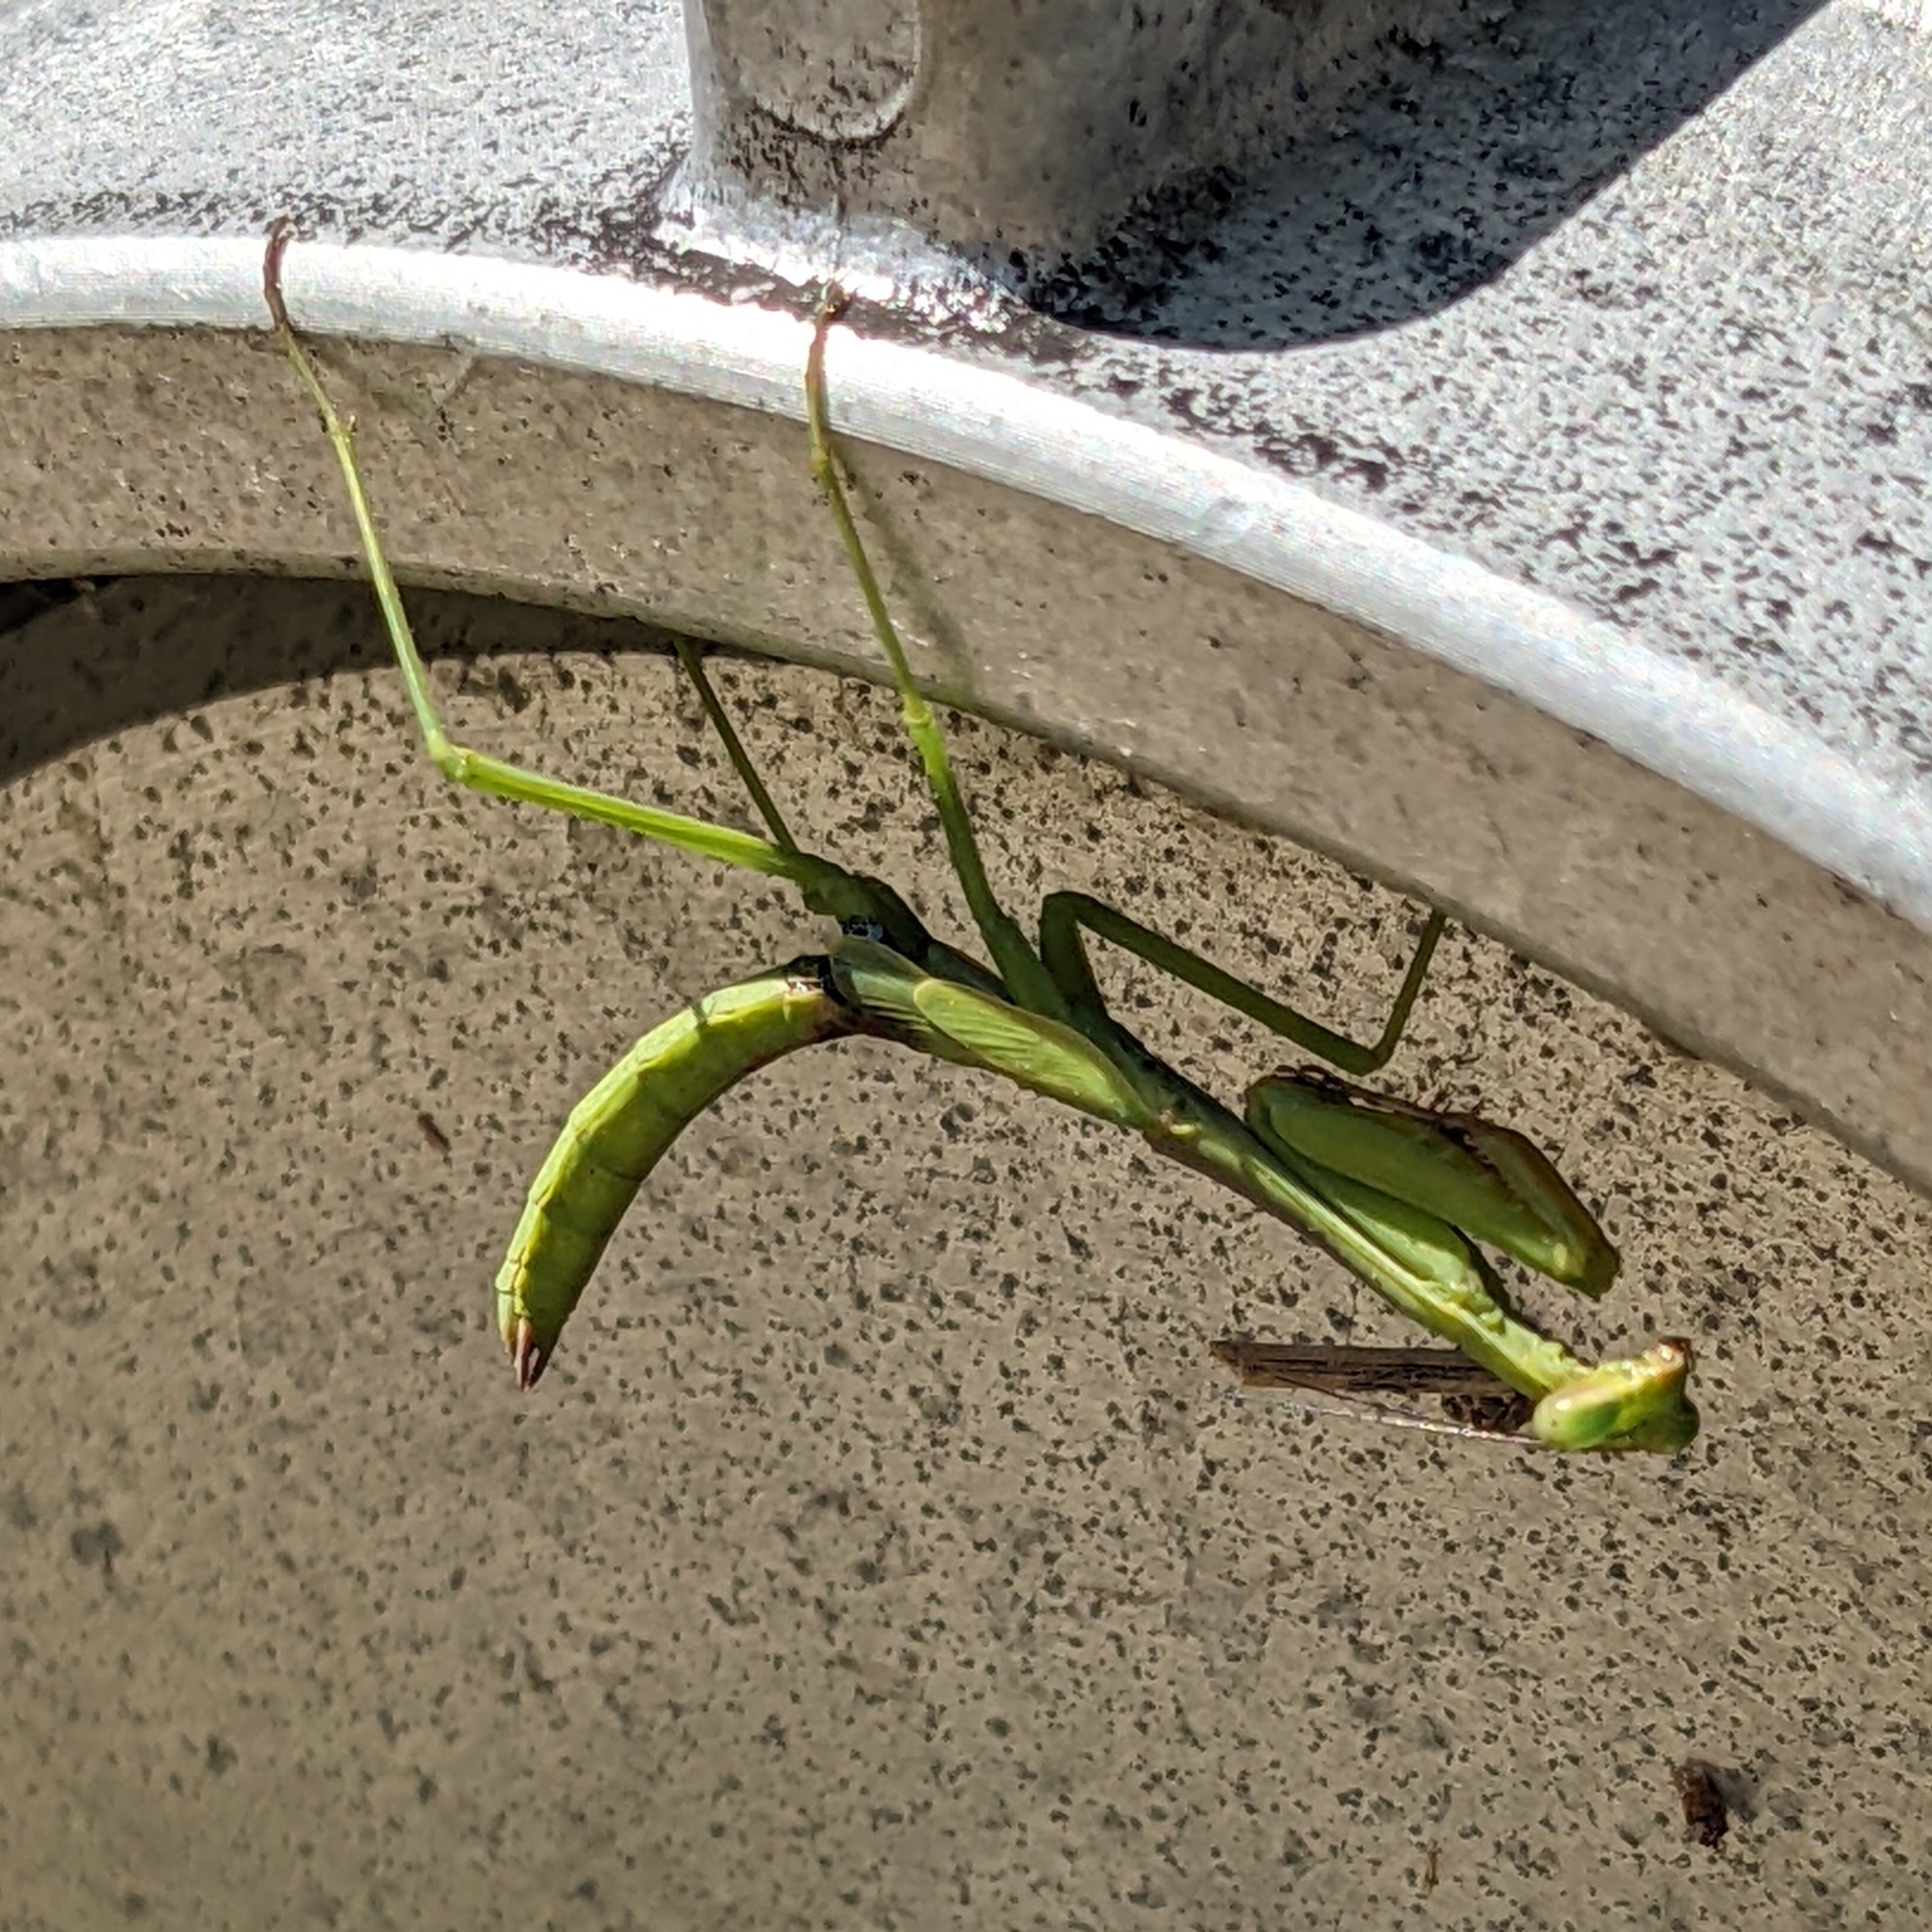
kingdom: Animalia
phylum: Arthropoda
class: Insecta
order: Mantodea
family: Mantidae
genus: Stagmomantis
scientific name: Stagmomantis carolina
